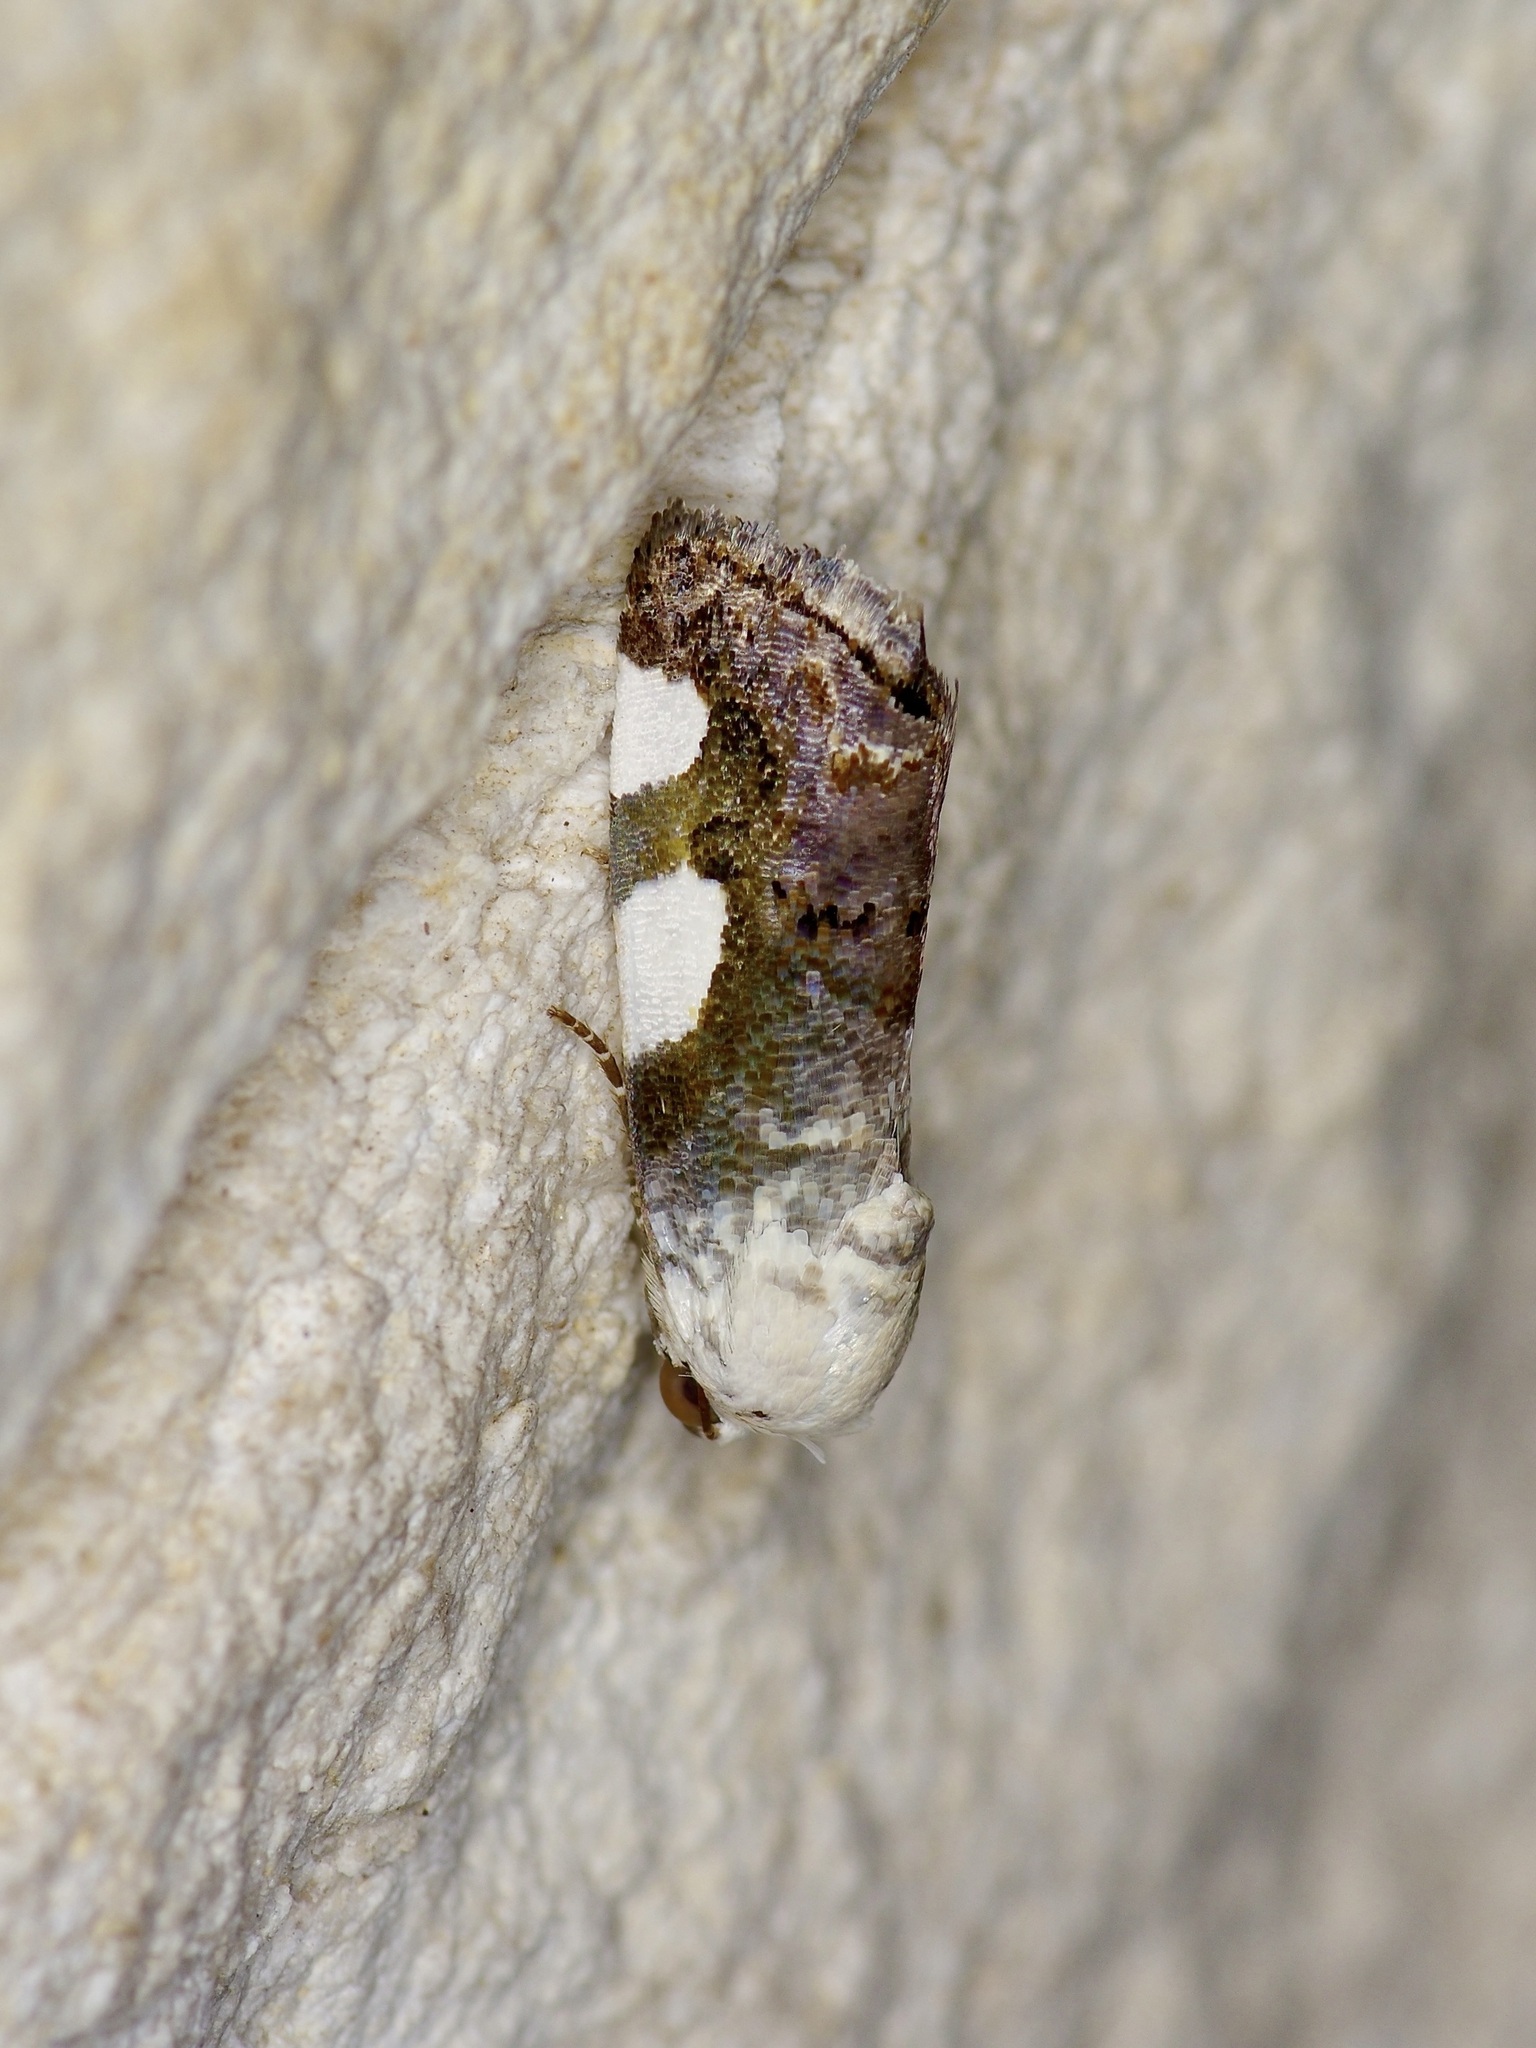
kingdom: Animalia
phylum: Arthropoda
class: Insecta
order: Lepidoptera
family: Noctuidae
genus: Acontia
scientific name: Acontia quadriplaga
